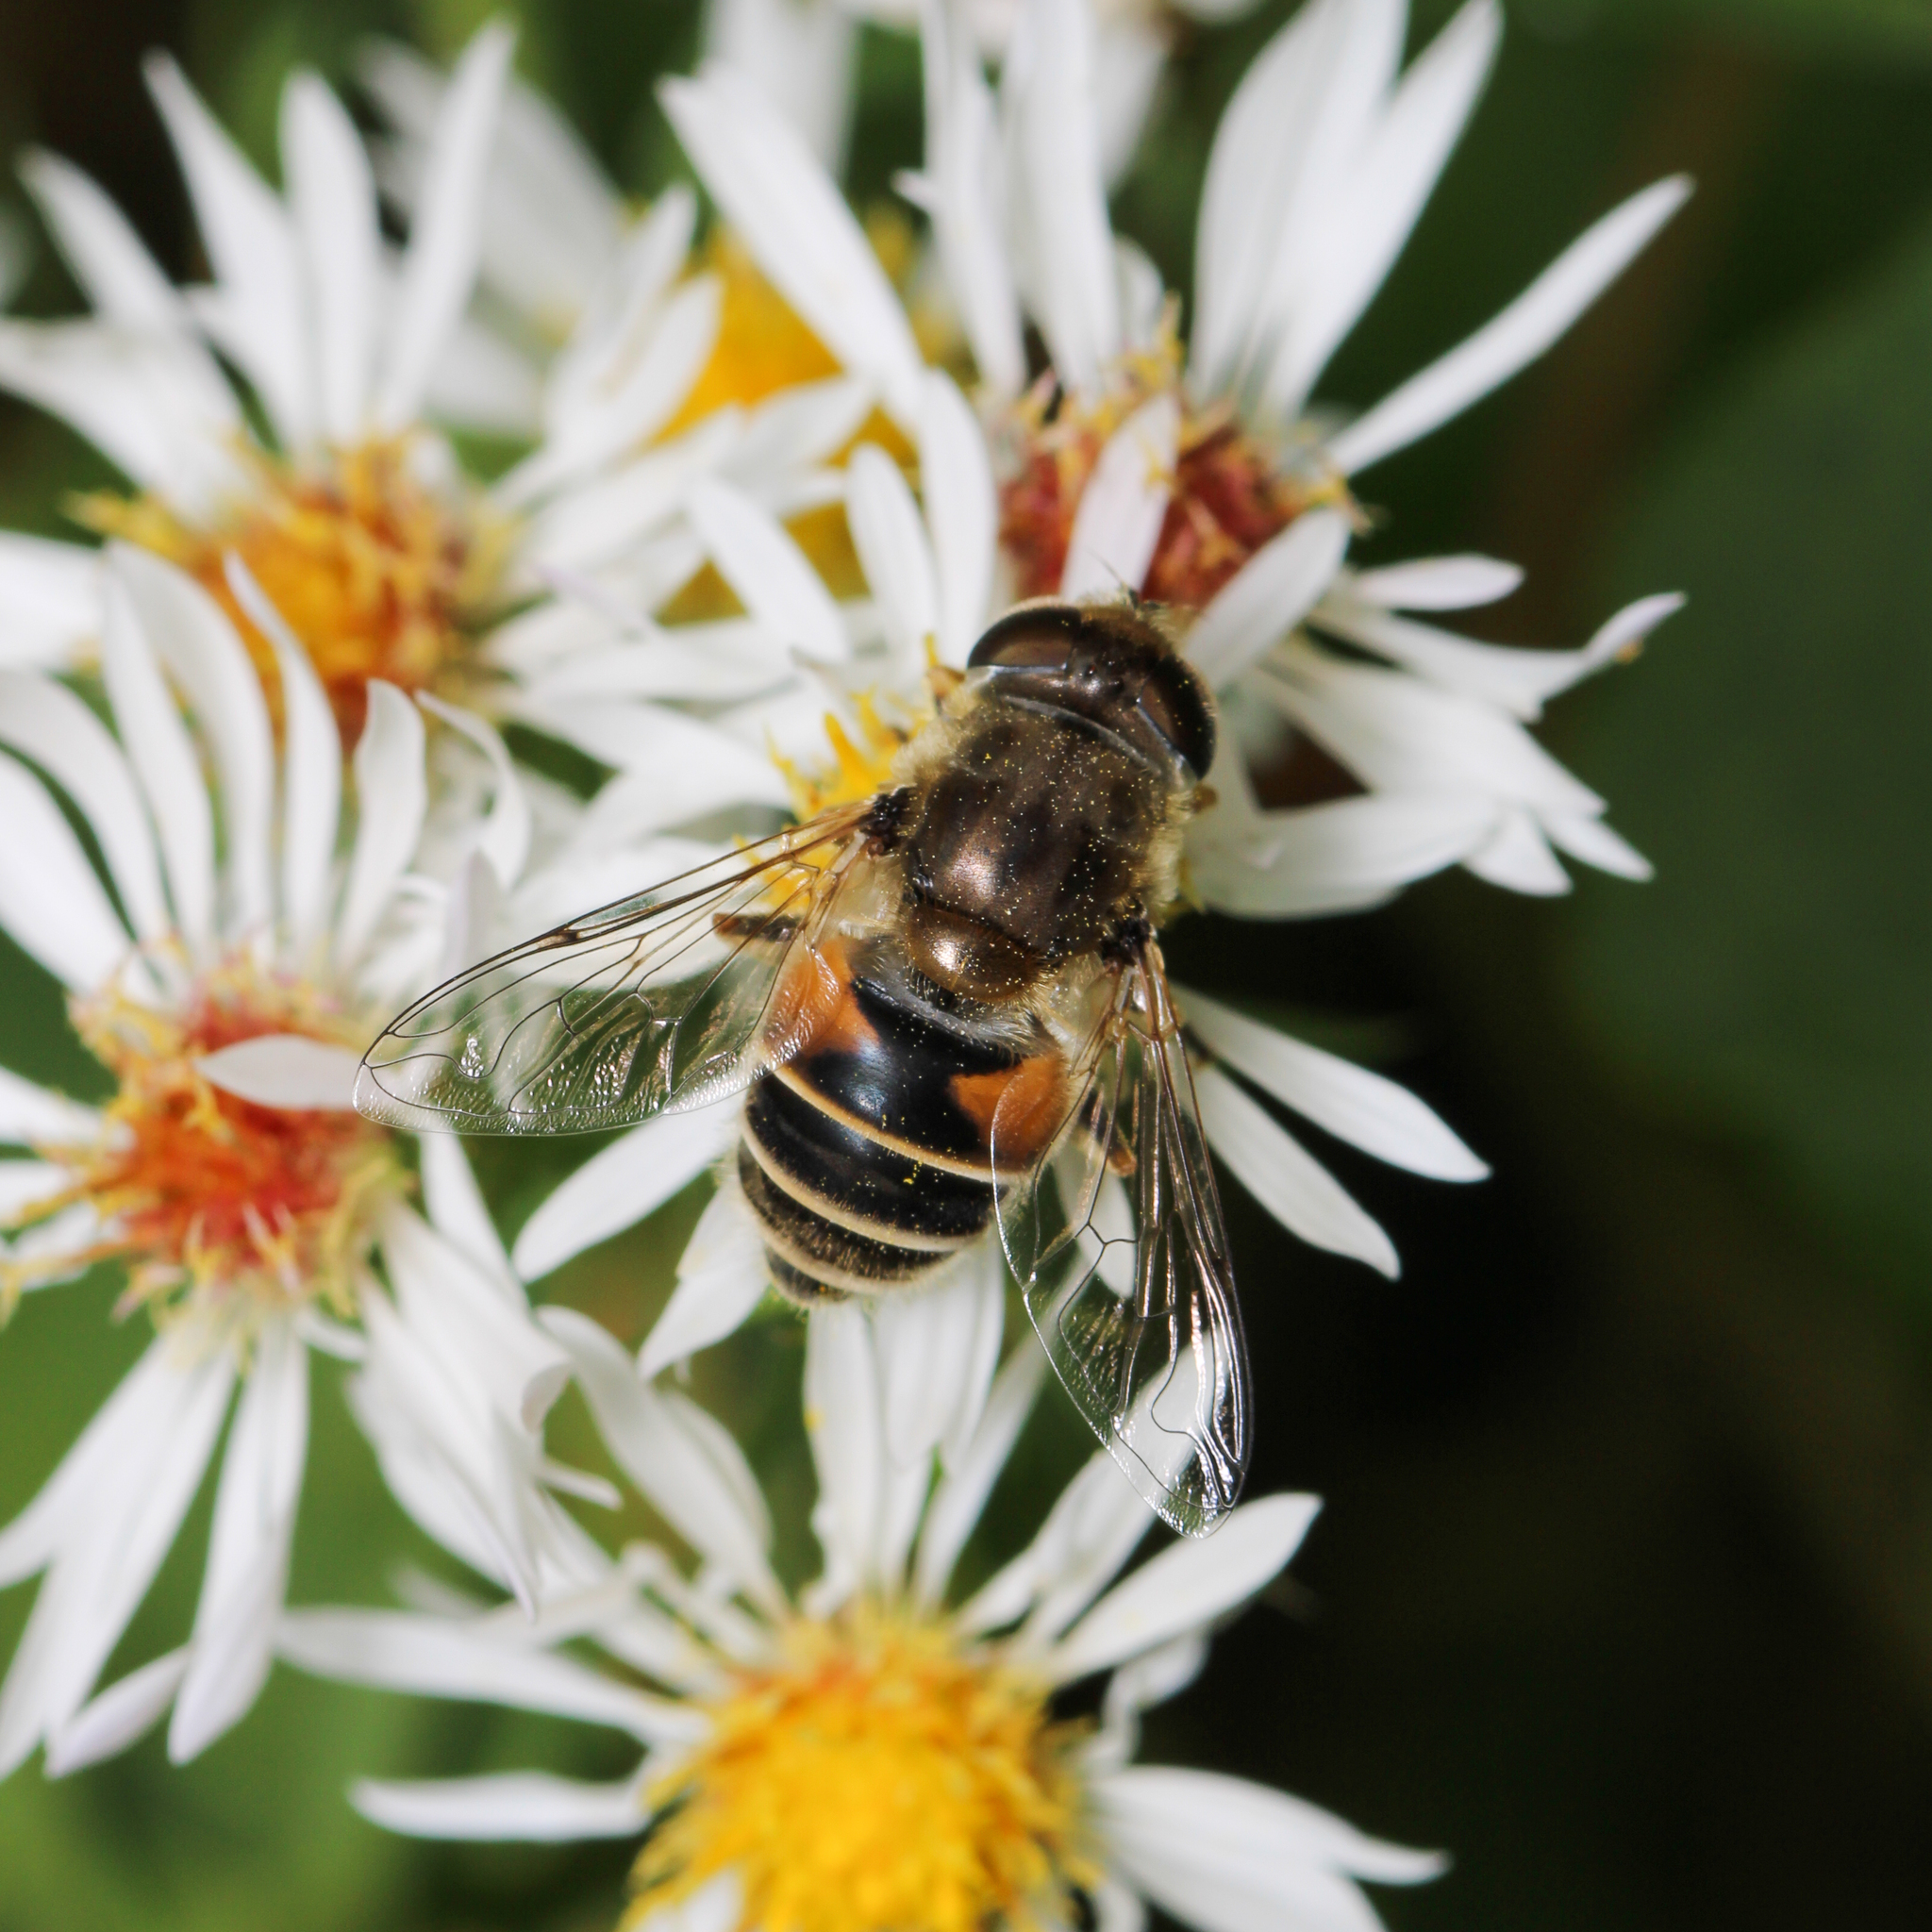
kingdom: Animalia
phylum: Arthropoda
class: Insecta
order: Diptera
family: Syrphidae
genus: Eristalis
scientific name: Eristalis arbustorum
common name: Hover fly
